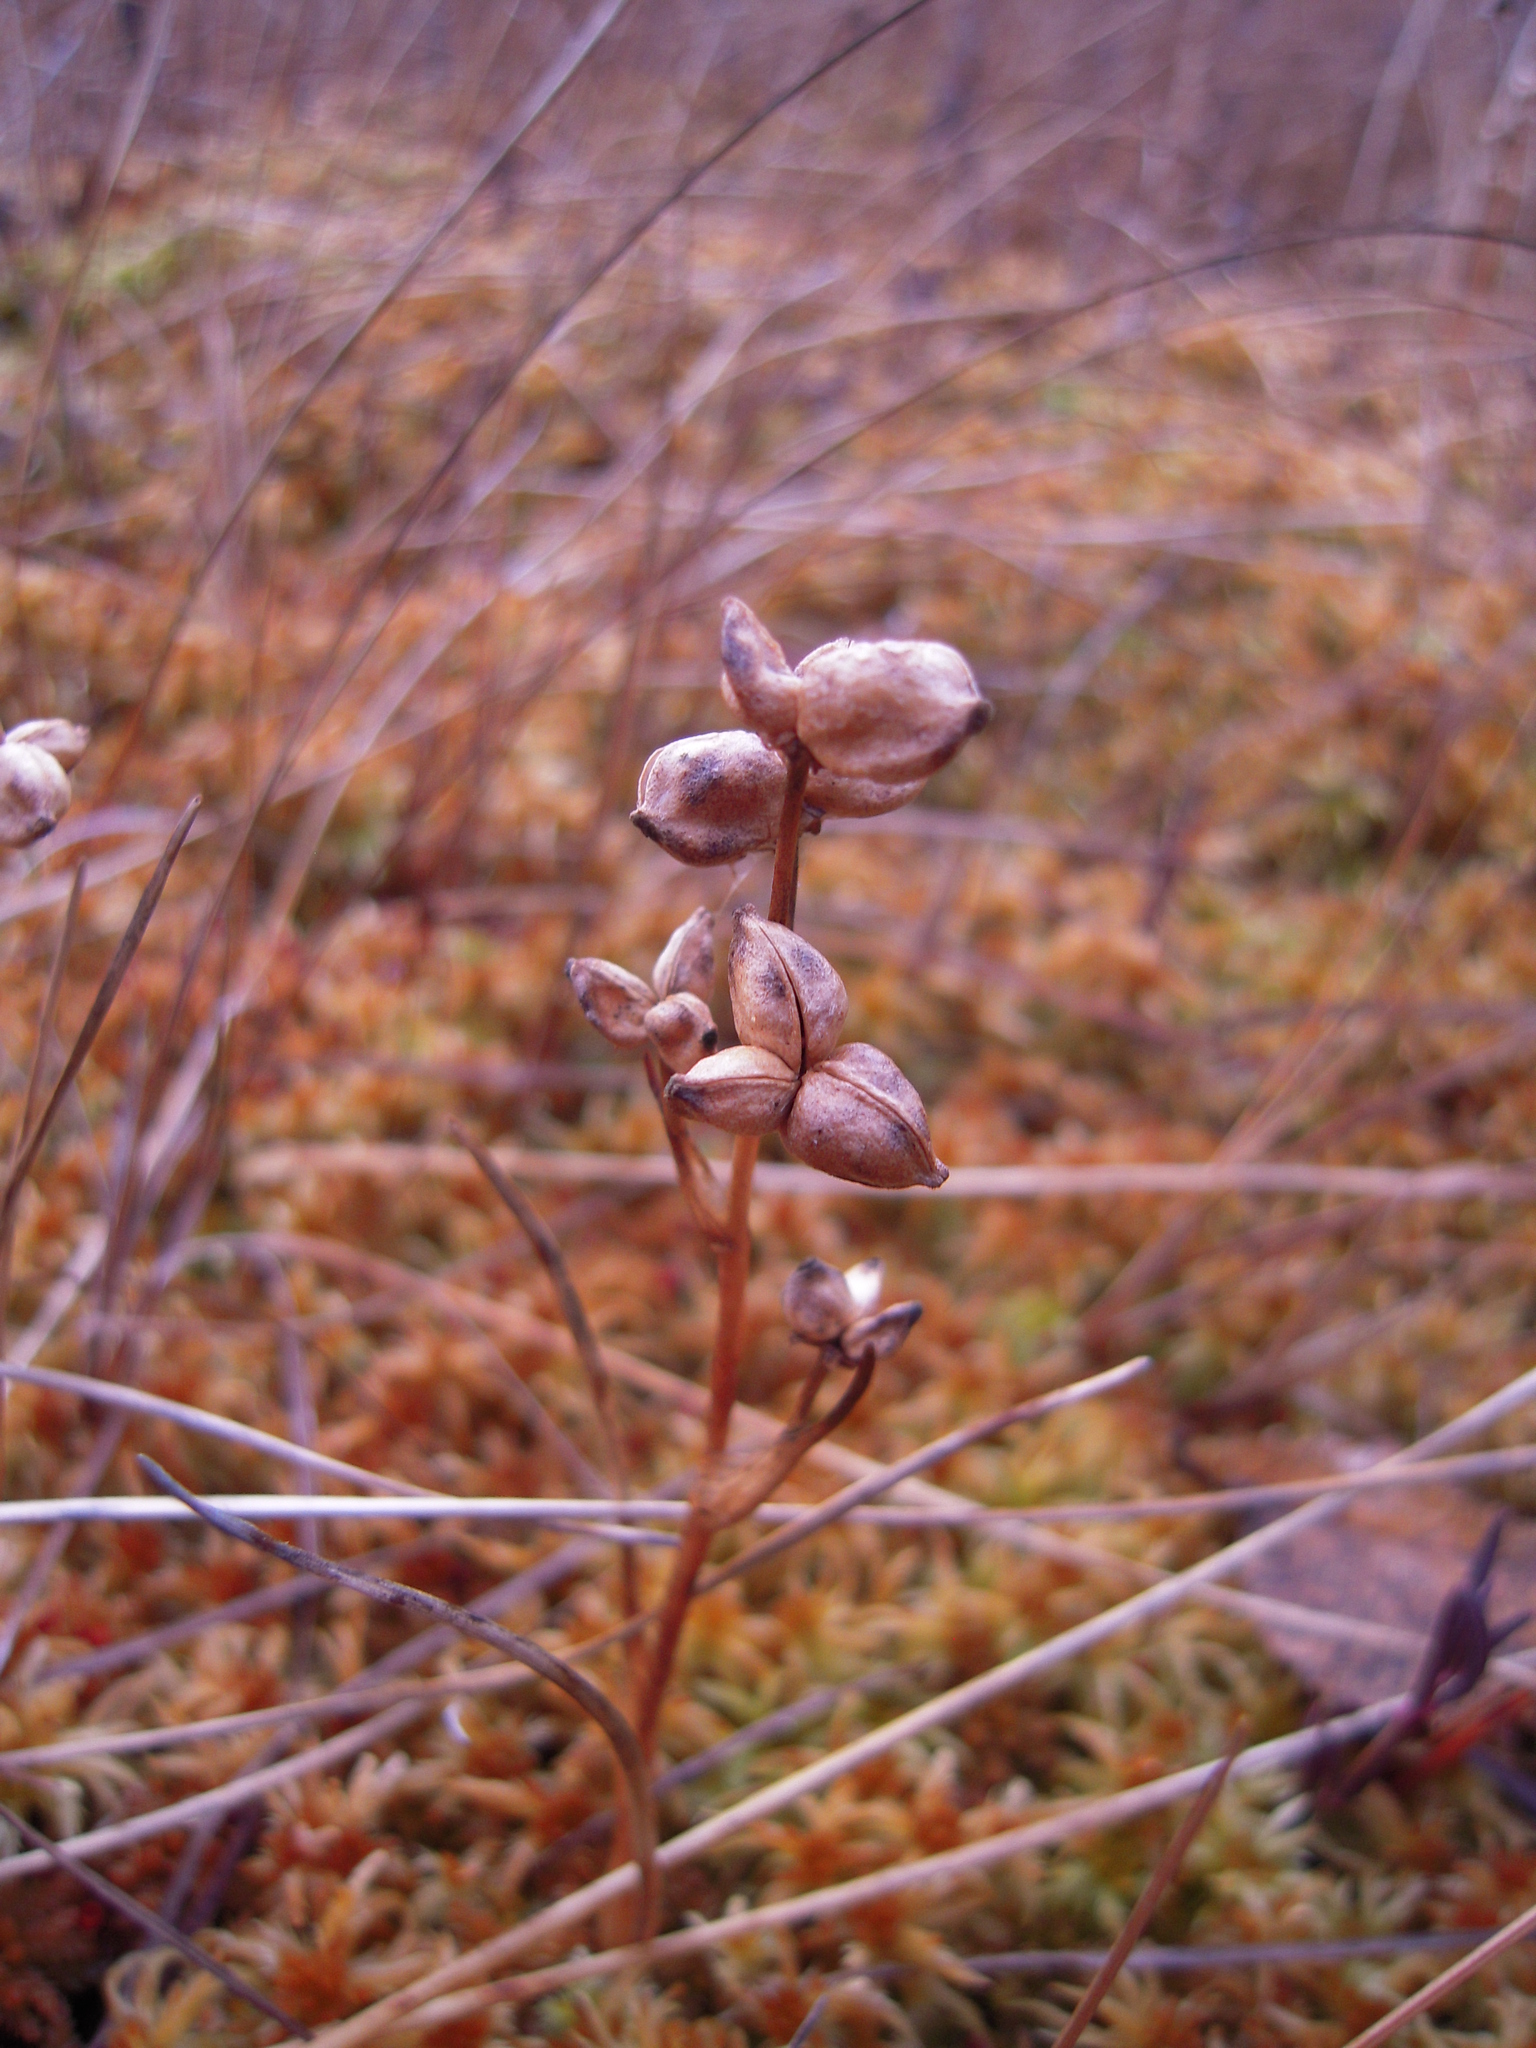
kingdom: Plantae
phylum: Tracheophyta
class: Liliopsida
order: Alismatales
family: Scheuchzeriaceae
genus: Scheuchzeria
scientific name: Scheuchzeria palustris
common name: Rannoch-rush
